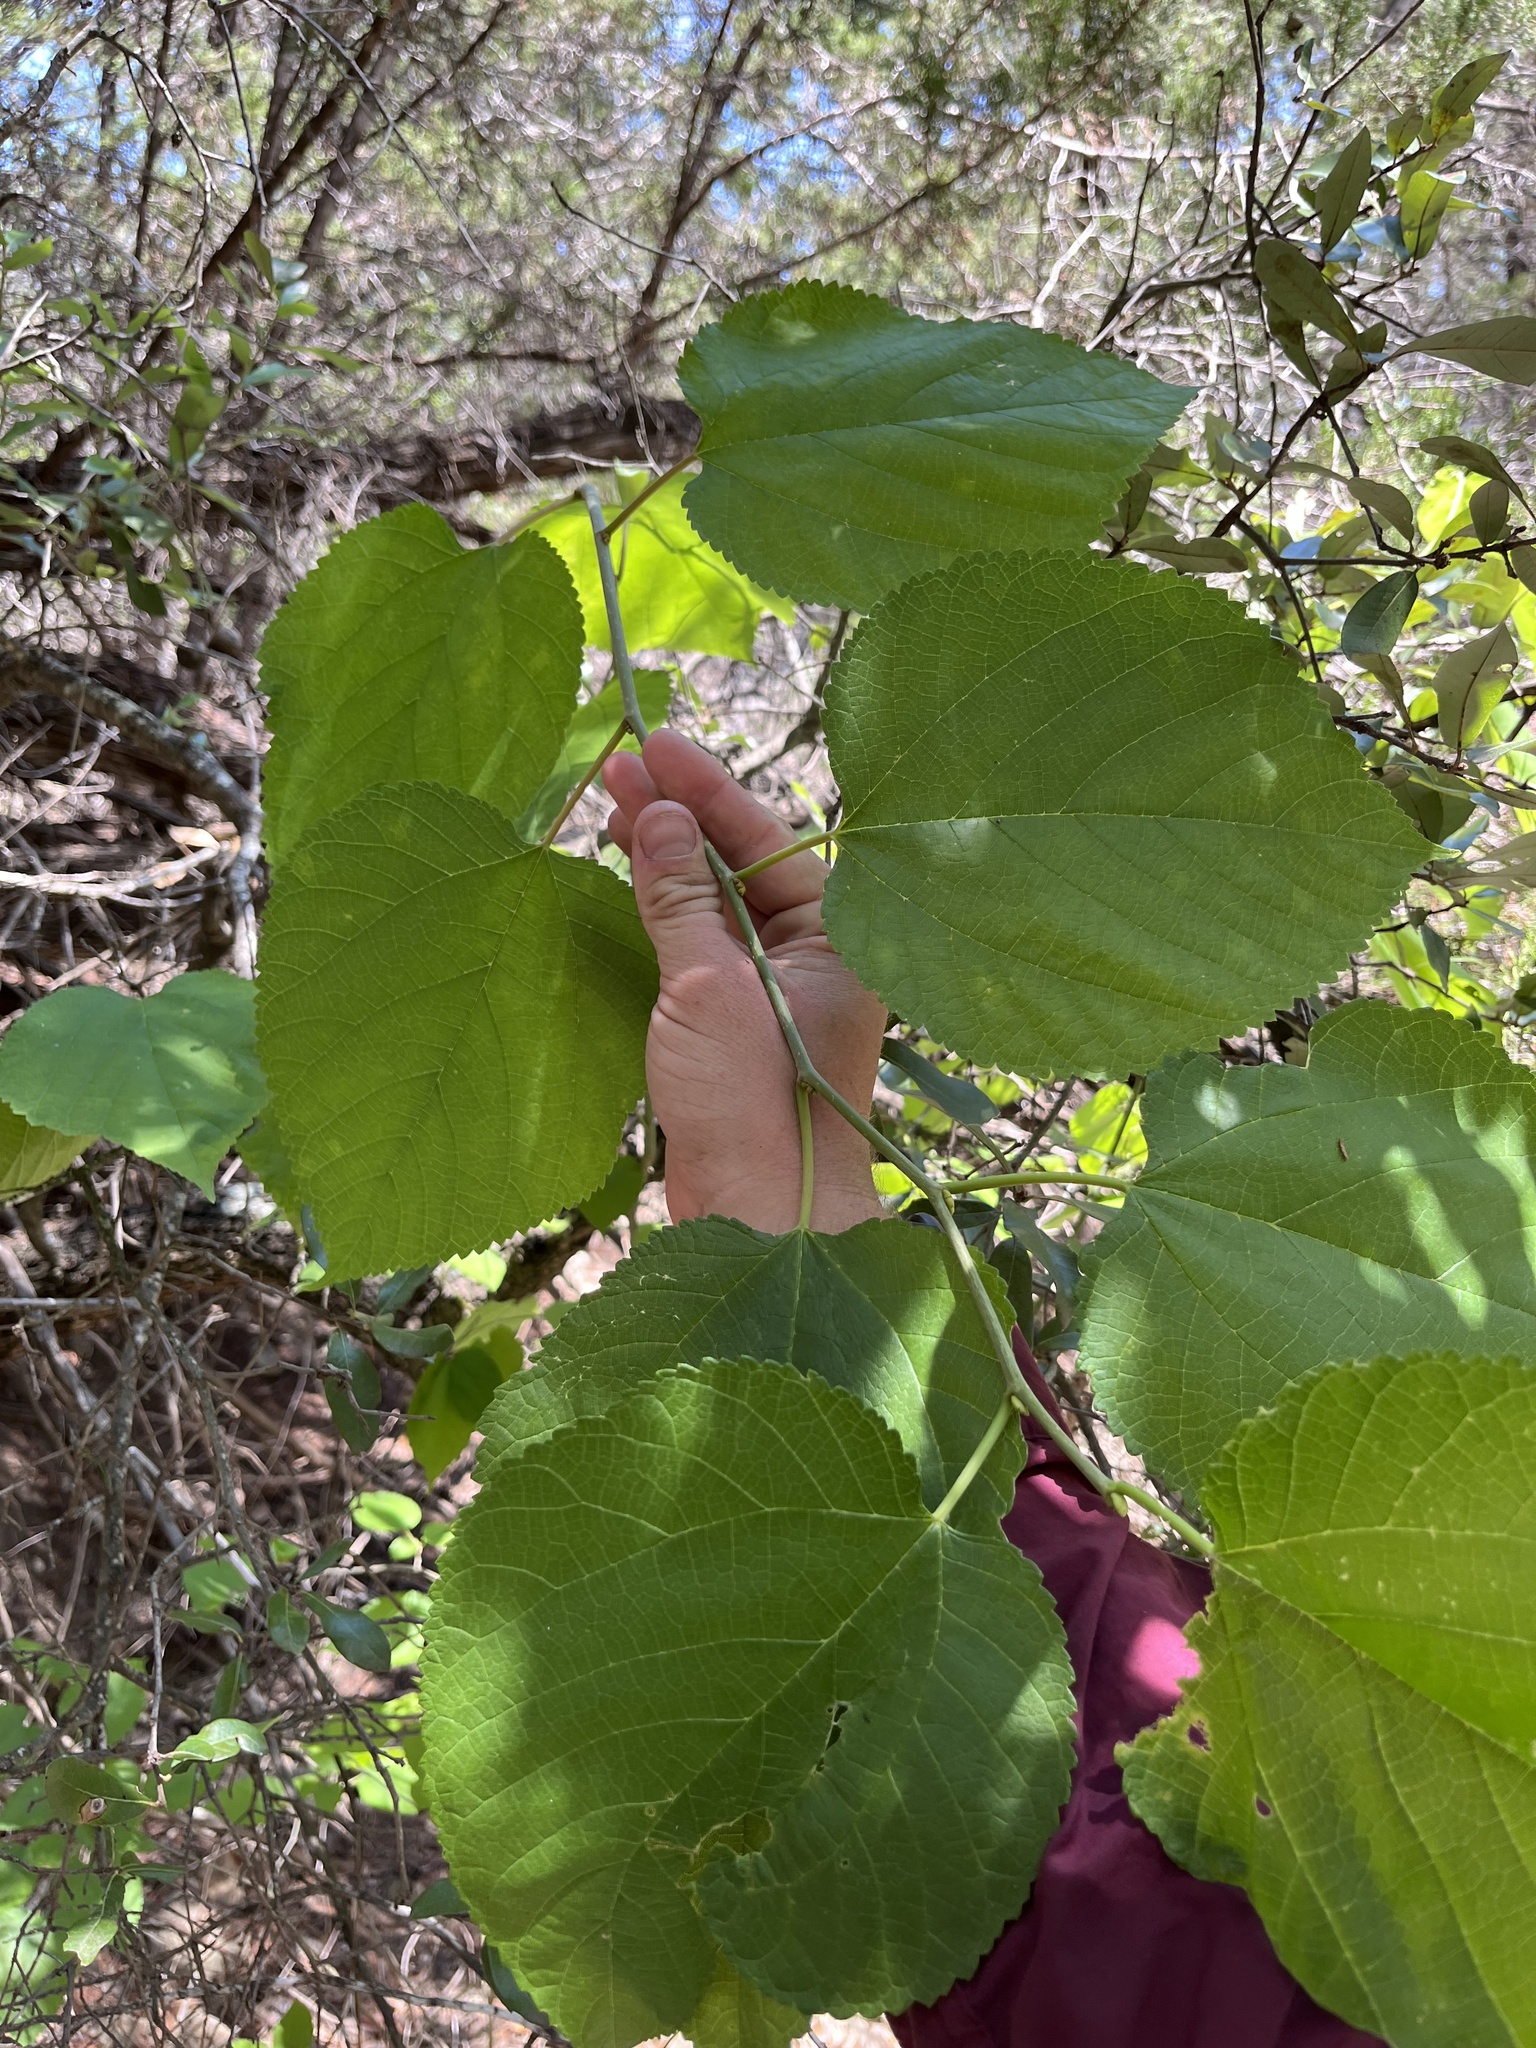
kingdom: Plantae
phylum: Tracheophyta
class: Magnoliopsida
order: Rosales
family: Moraceae
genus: Morus
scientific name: Morus rubra
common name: Red mulberry
